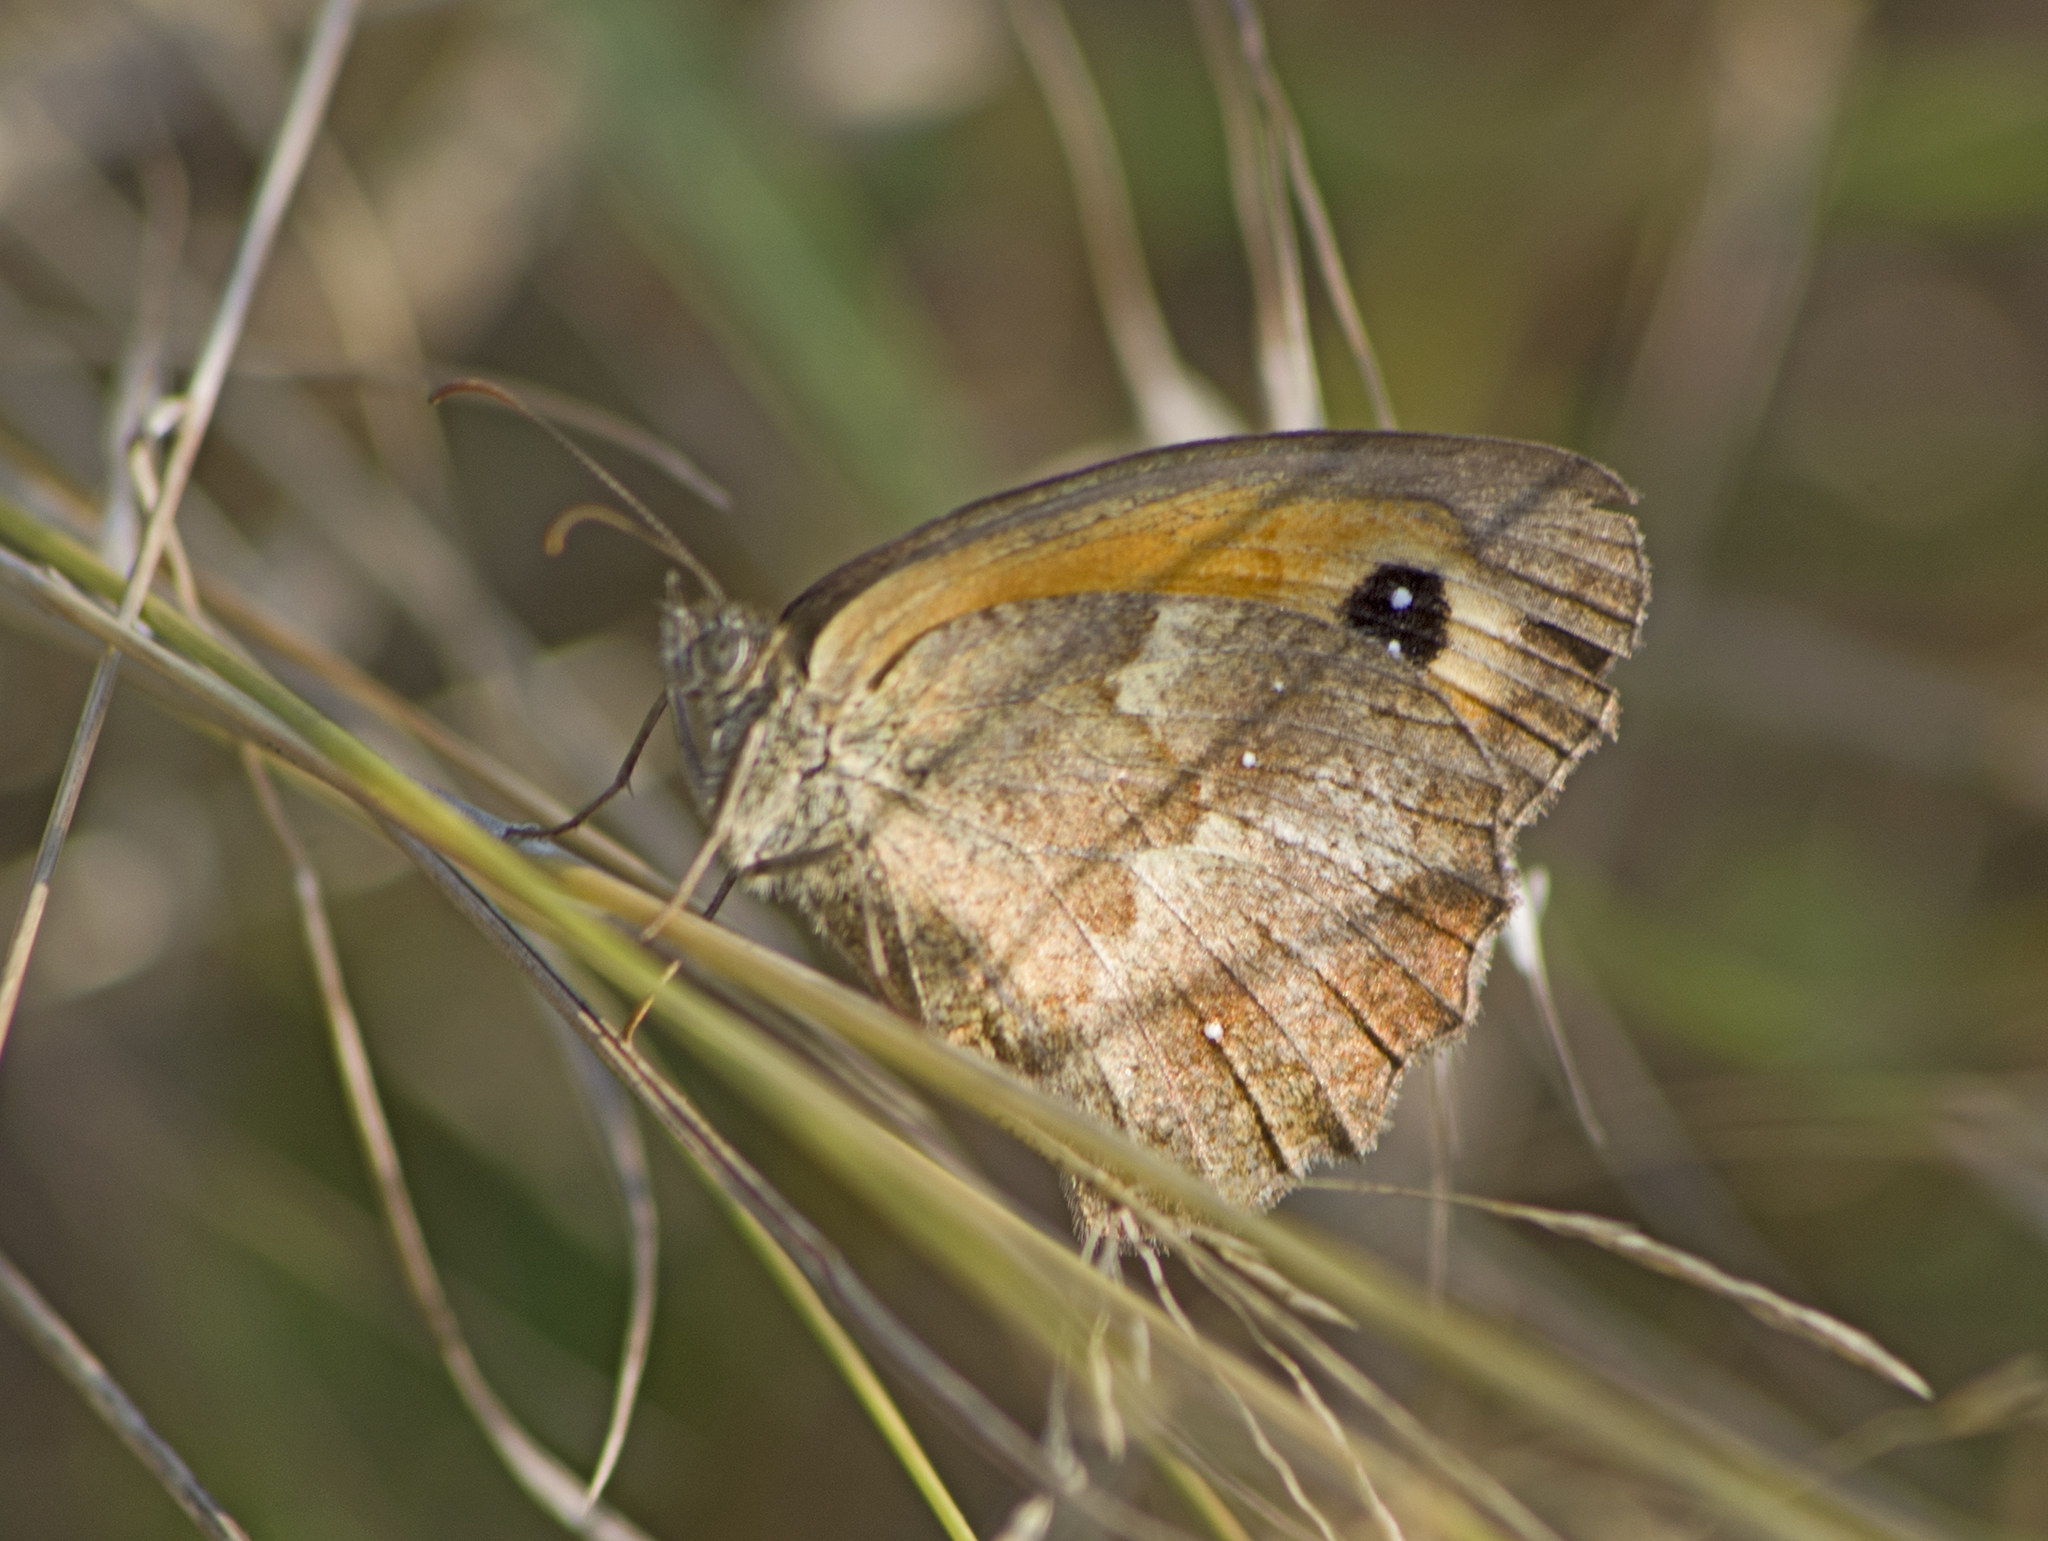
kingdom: Animalia
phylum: Arthropoda
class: Insecta
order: Lepidoptera
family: Nymphalidae
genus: Pyronia
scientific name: Pyronia tithonus
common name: Gatekeeper
